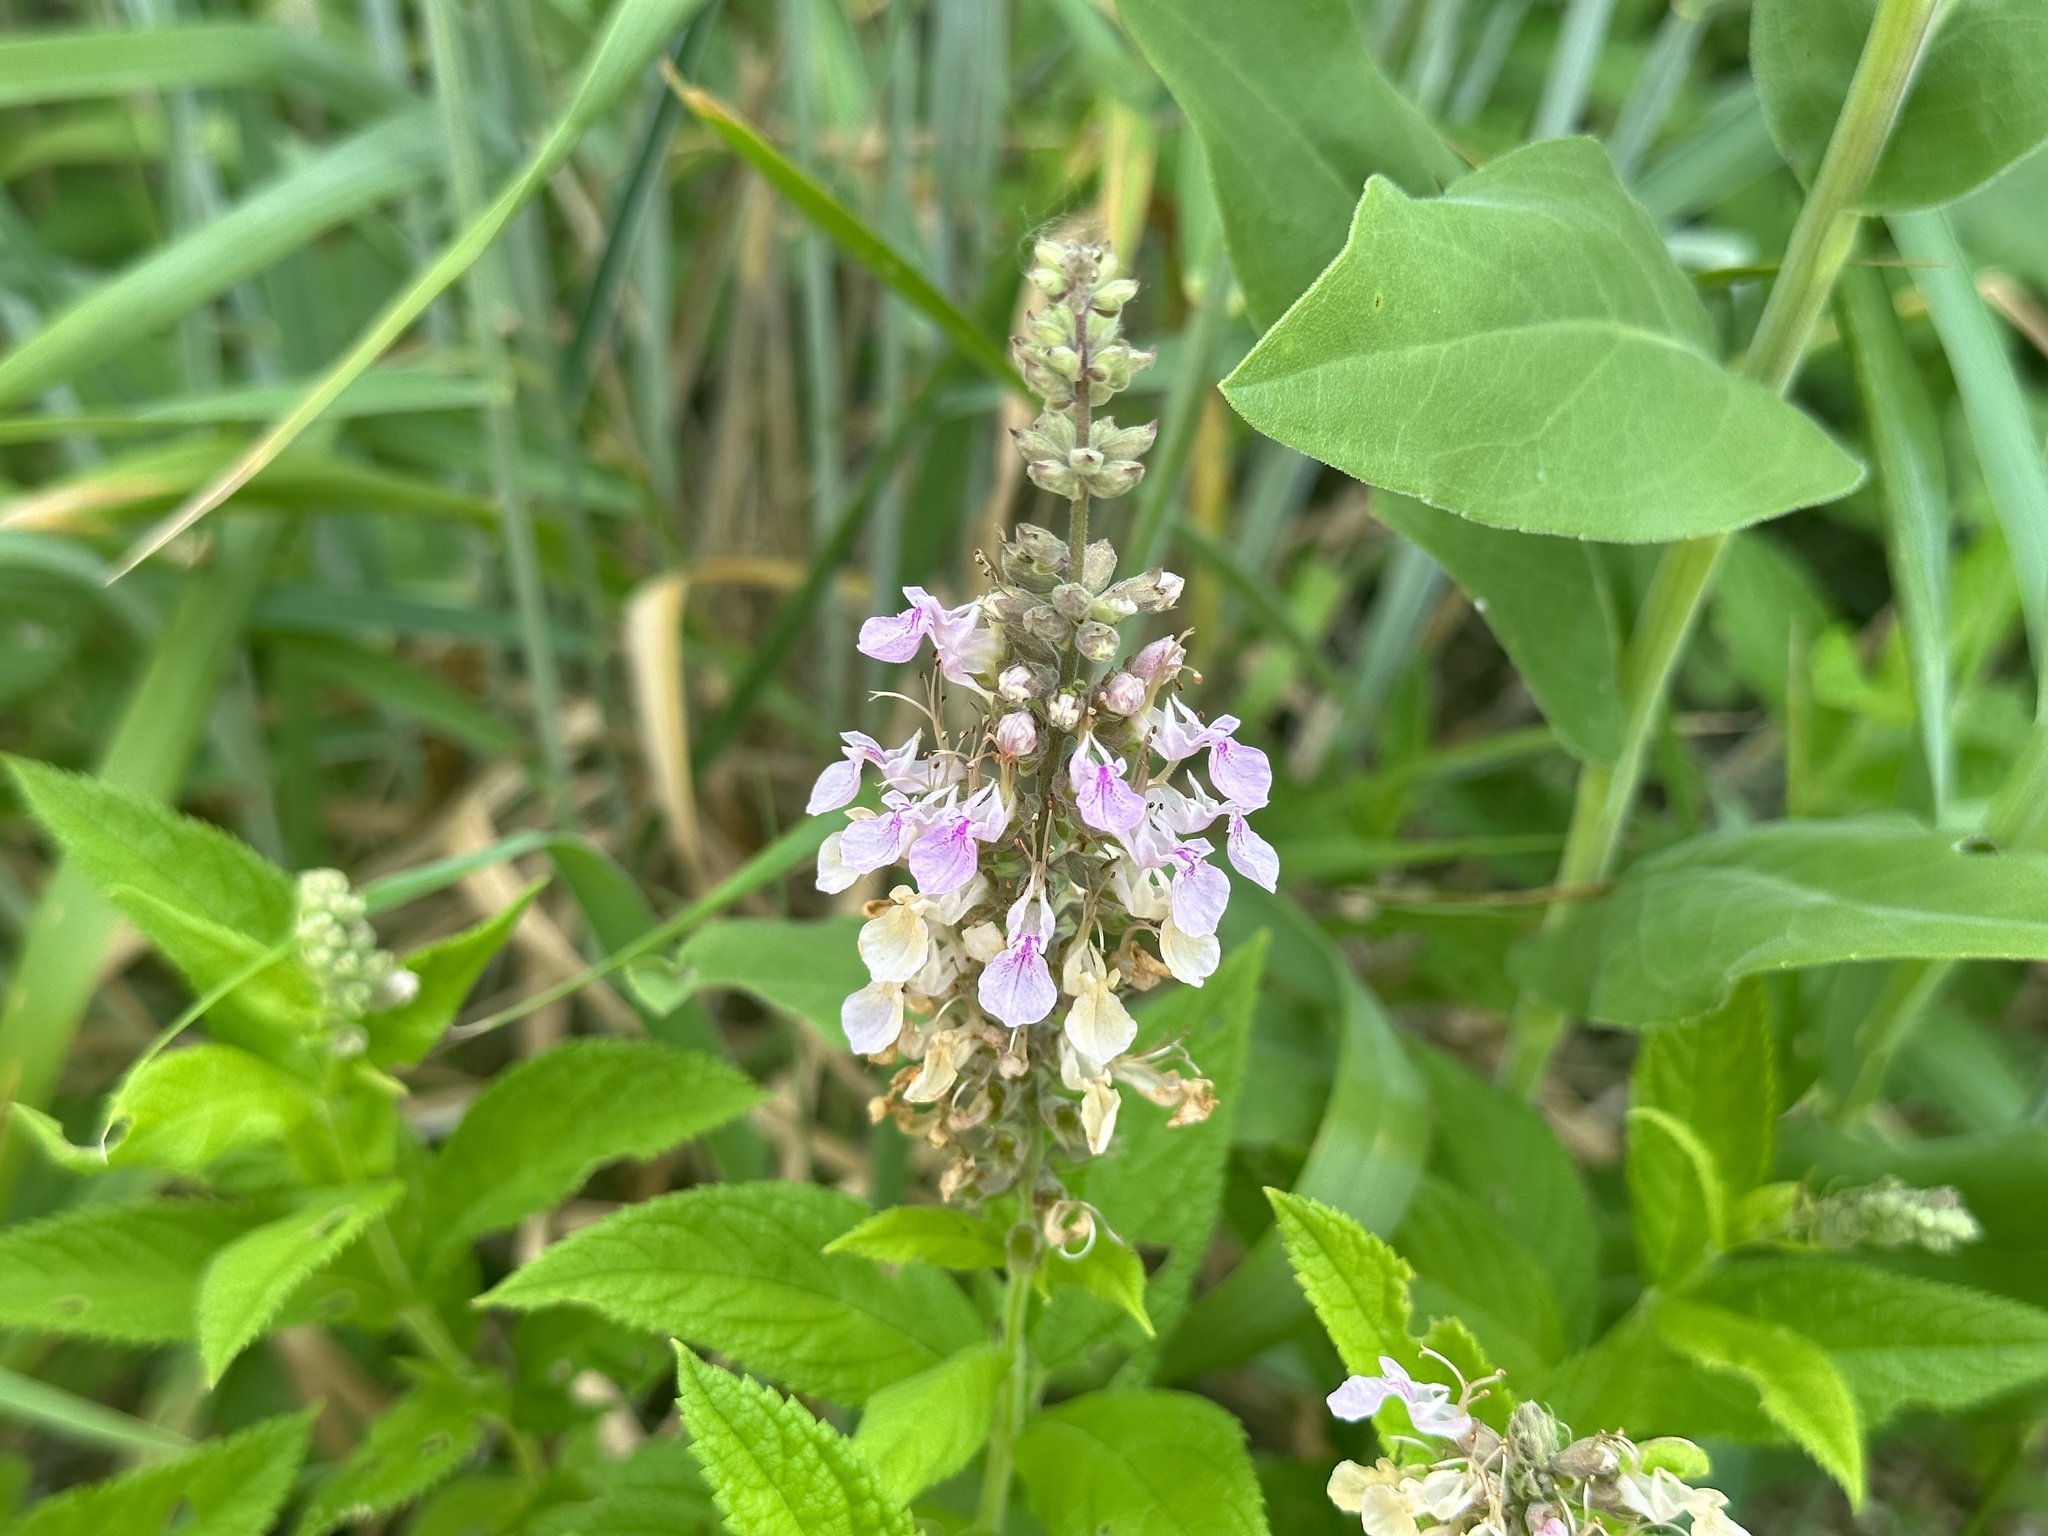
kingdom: Plantae
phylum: Tracheophyta
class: Magnoliopsida
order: Lamiales
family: Lamiaceae
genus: Teucrium
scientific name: Teucrium canadense
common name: American germander
